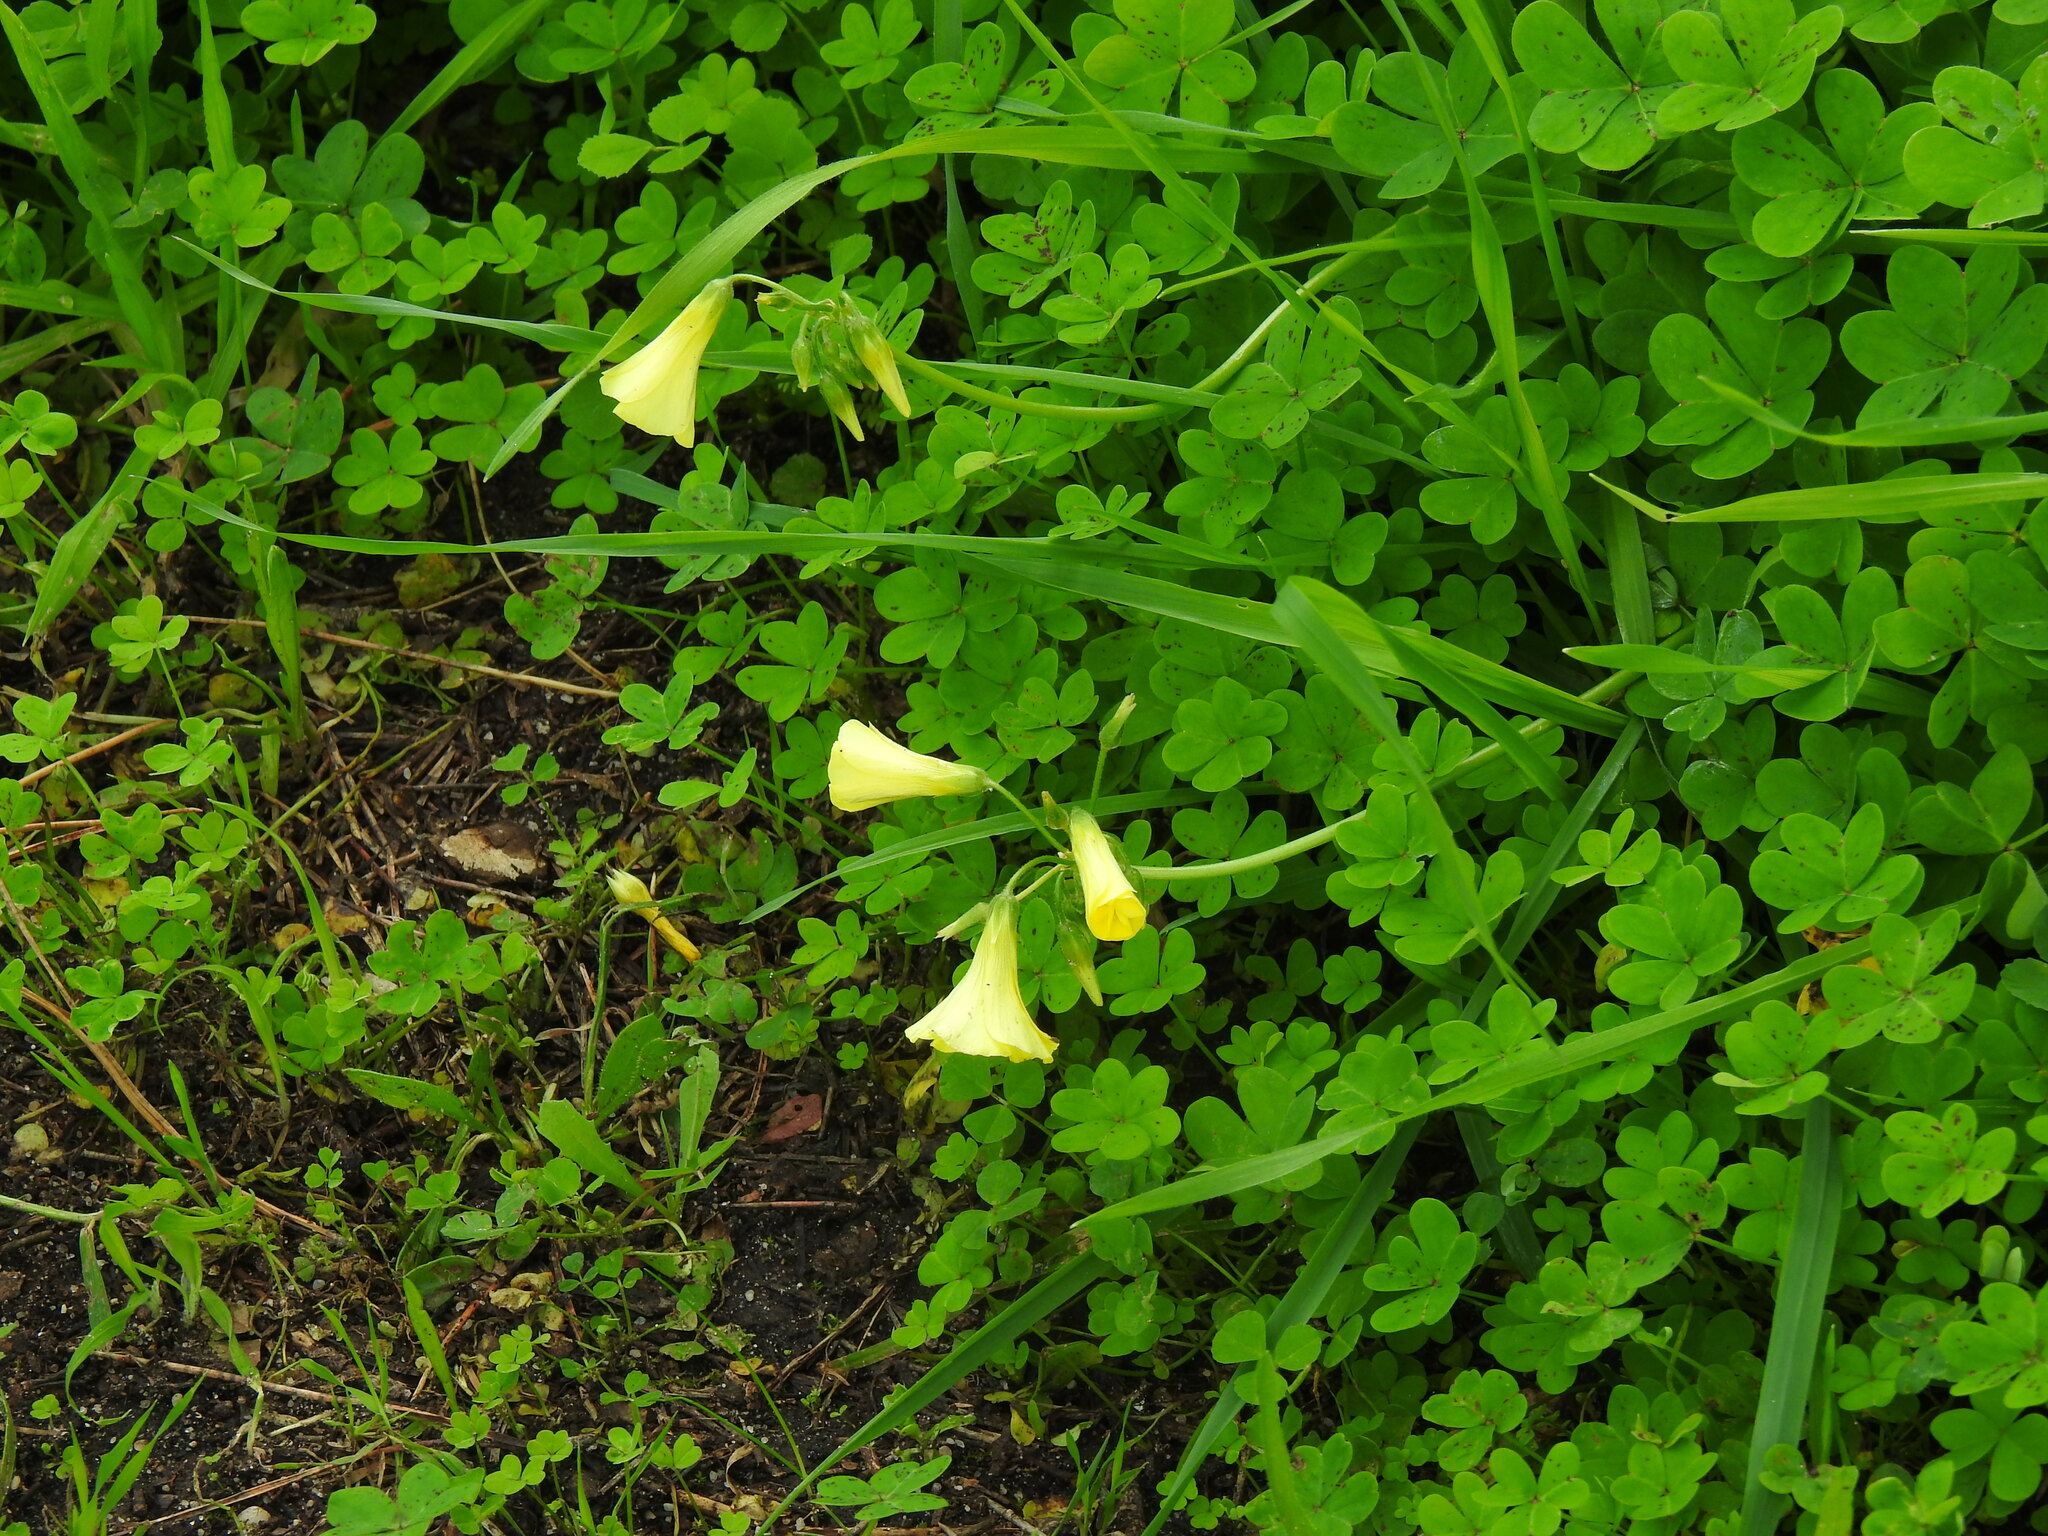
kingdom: Plantae
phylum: Tracheophyta
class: Magnoliopsida
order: Oxalidales
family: Oxalidaceae
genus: Oxalis
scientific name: Oxalis pes-caprae
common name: Bermuda-buttercup
